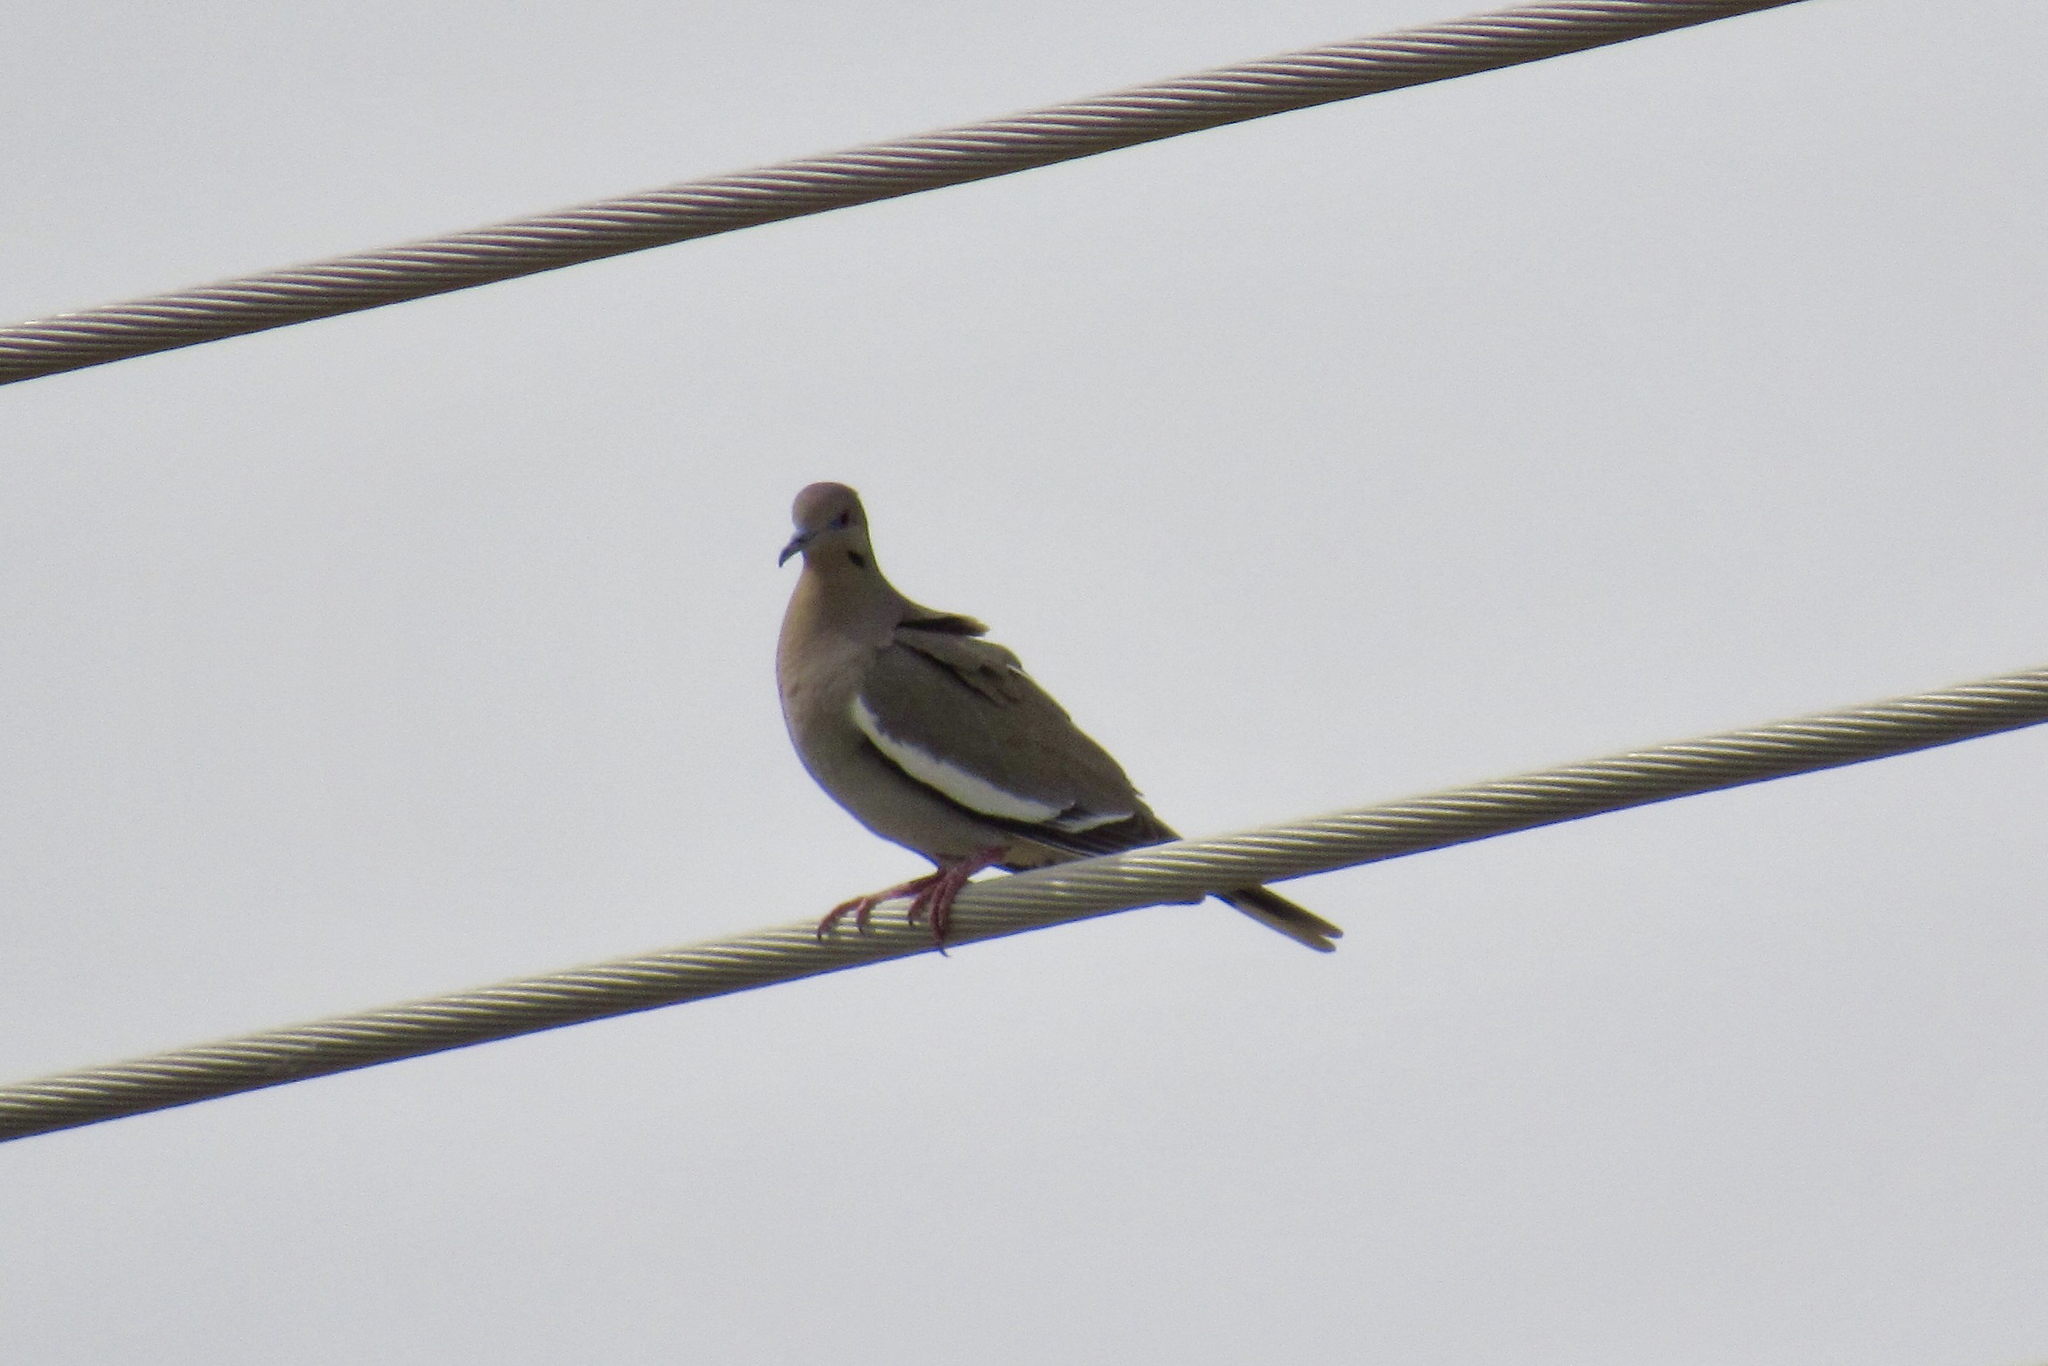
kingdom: Animalia
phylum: Chordata
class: Aves
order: Columbiformes
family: Columbidae
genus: Zenaida
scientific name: Zenaida asiatica
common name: White-winged dove
